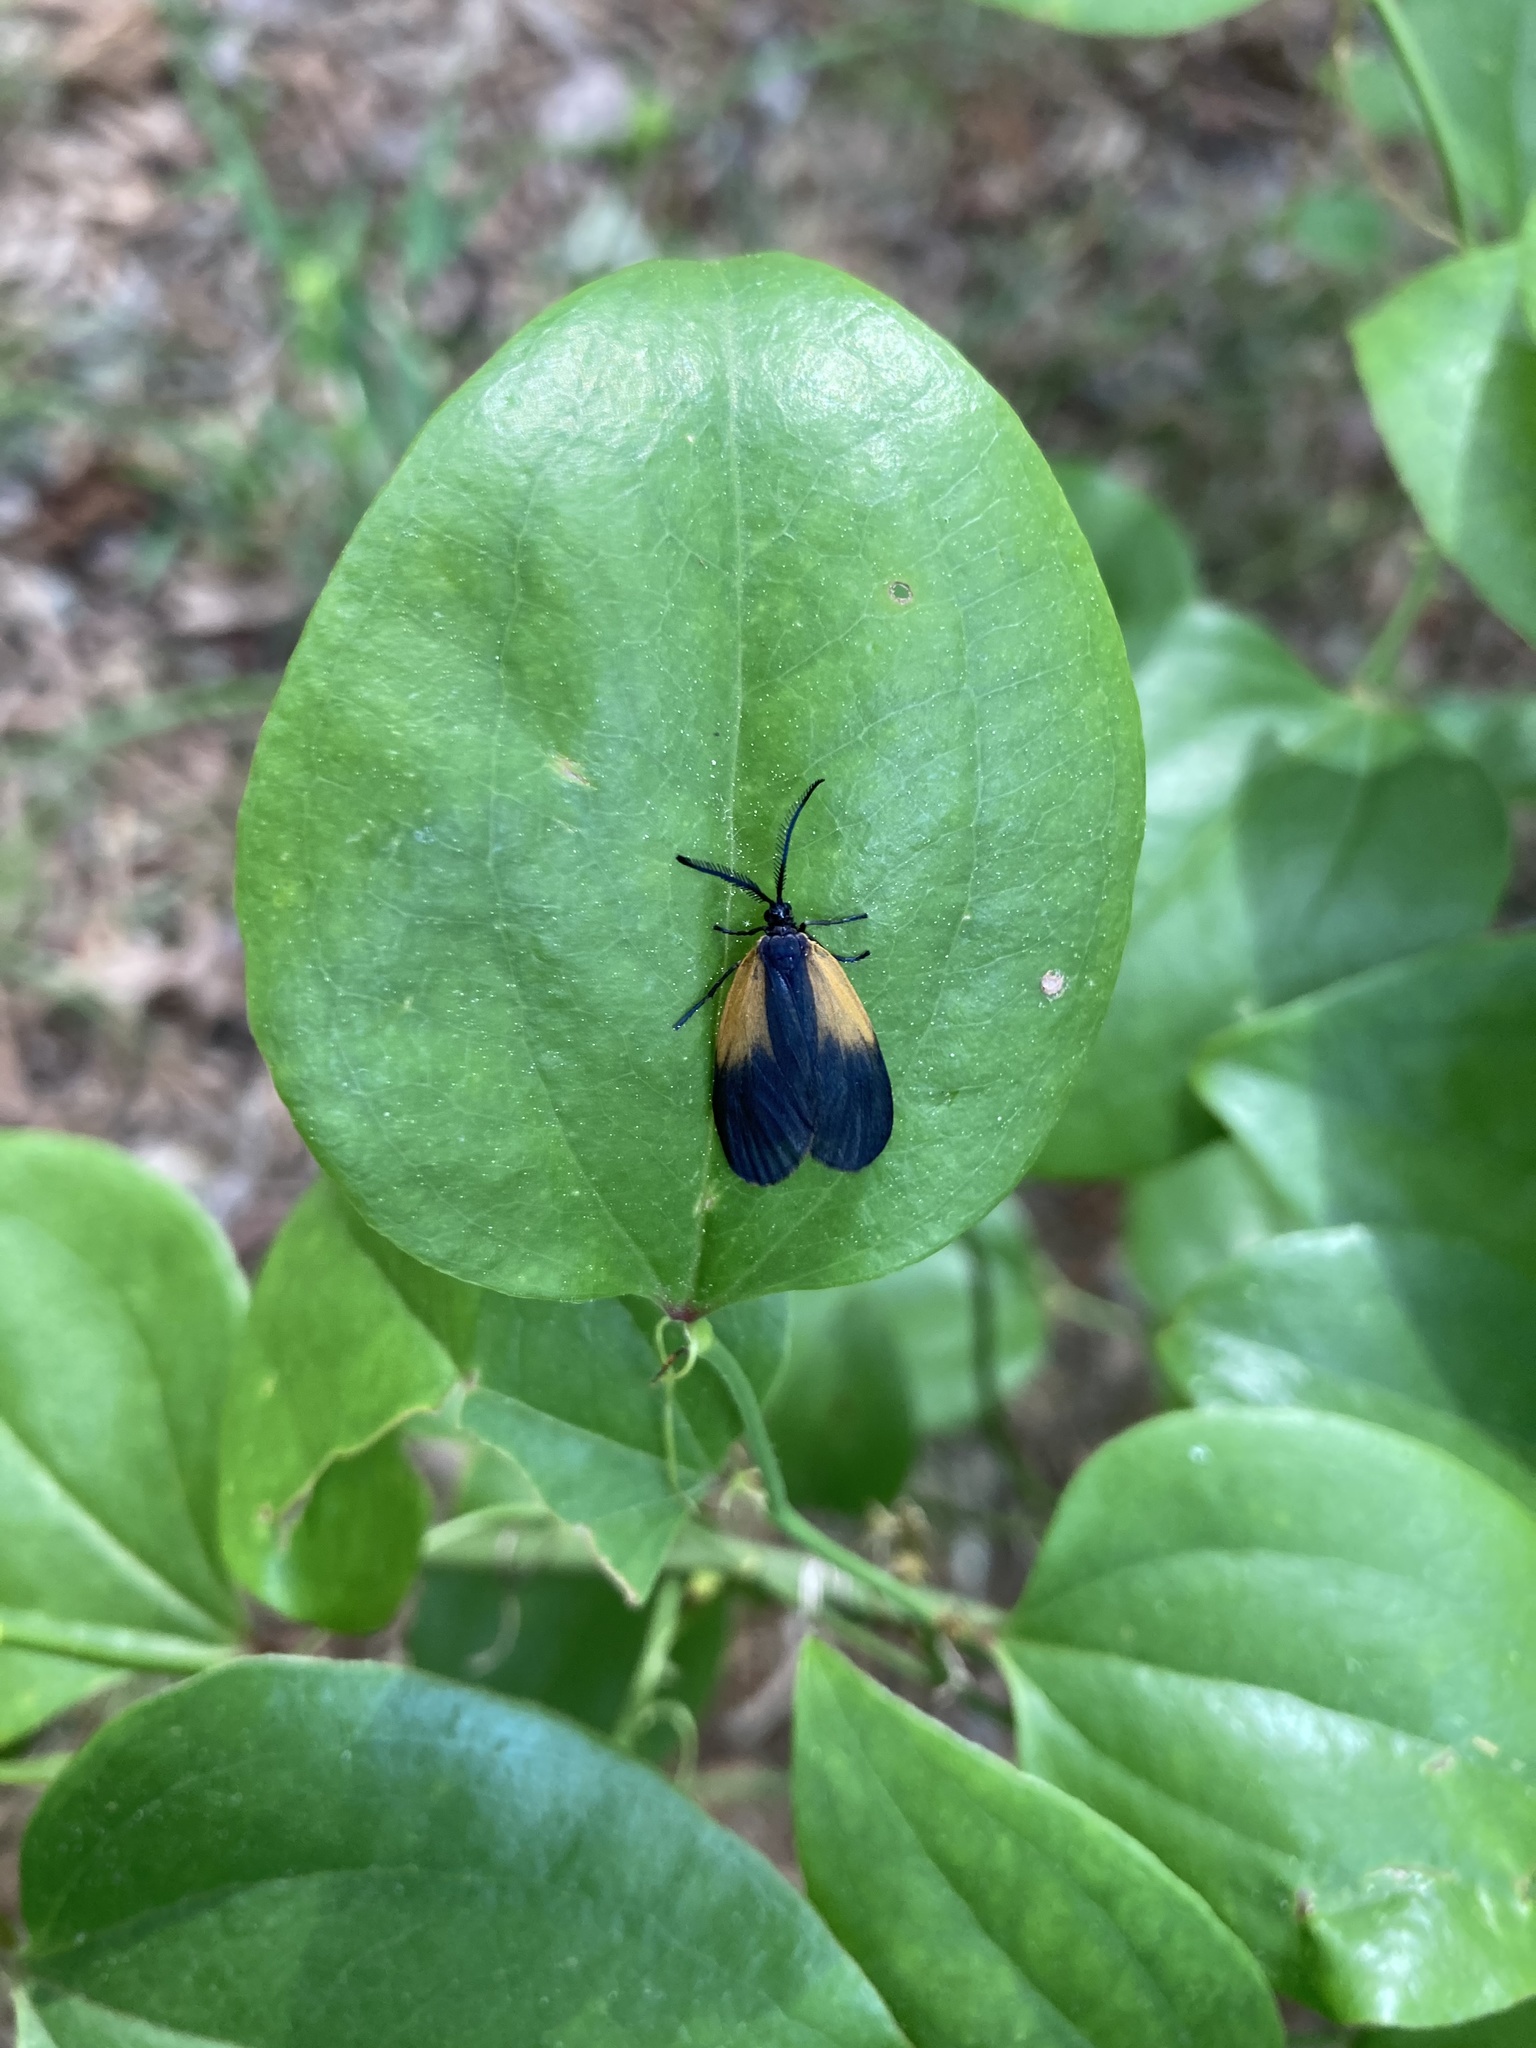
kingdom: Animalia
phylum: Arthropoda
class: Insecta
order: Lepidoptera
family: Zygaenidae
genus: Malthaca
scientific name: Malthaca dimidiata
